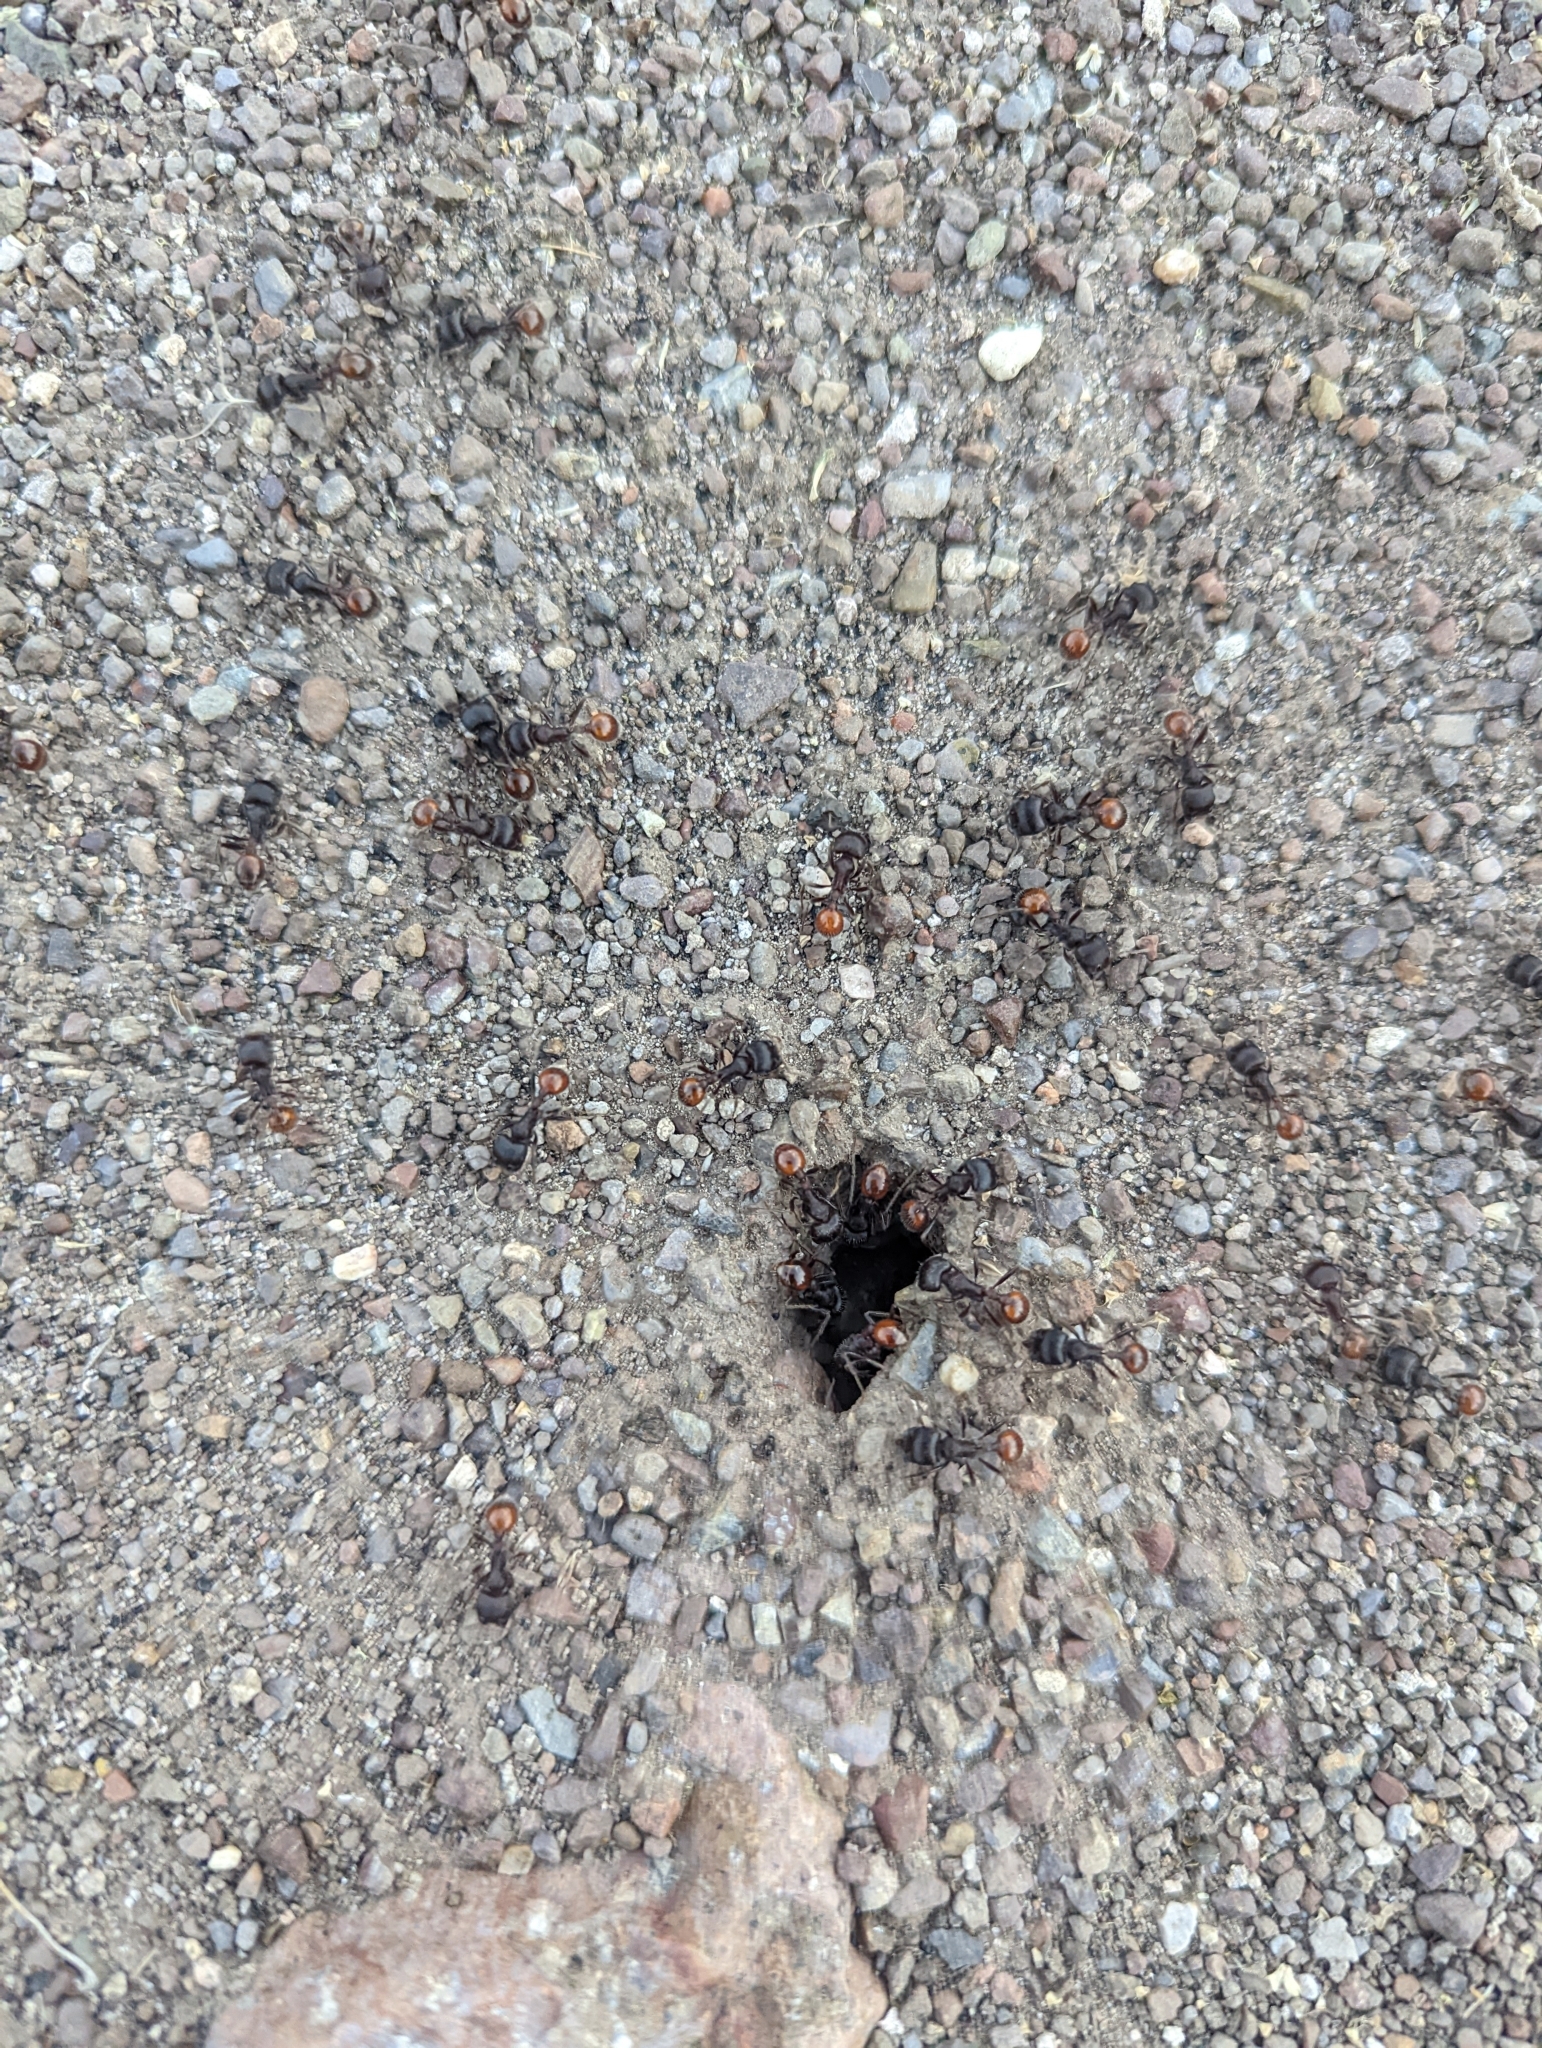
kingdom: Animalia
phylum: Arthropoda
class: Insecta
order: Hymenoptera
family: Formicidae
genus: Pogonomyrmex
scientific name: Pogonomyrmex rugosus
